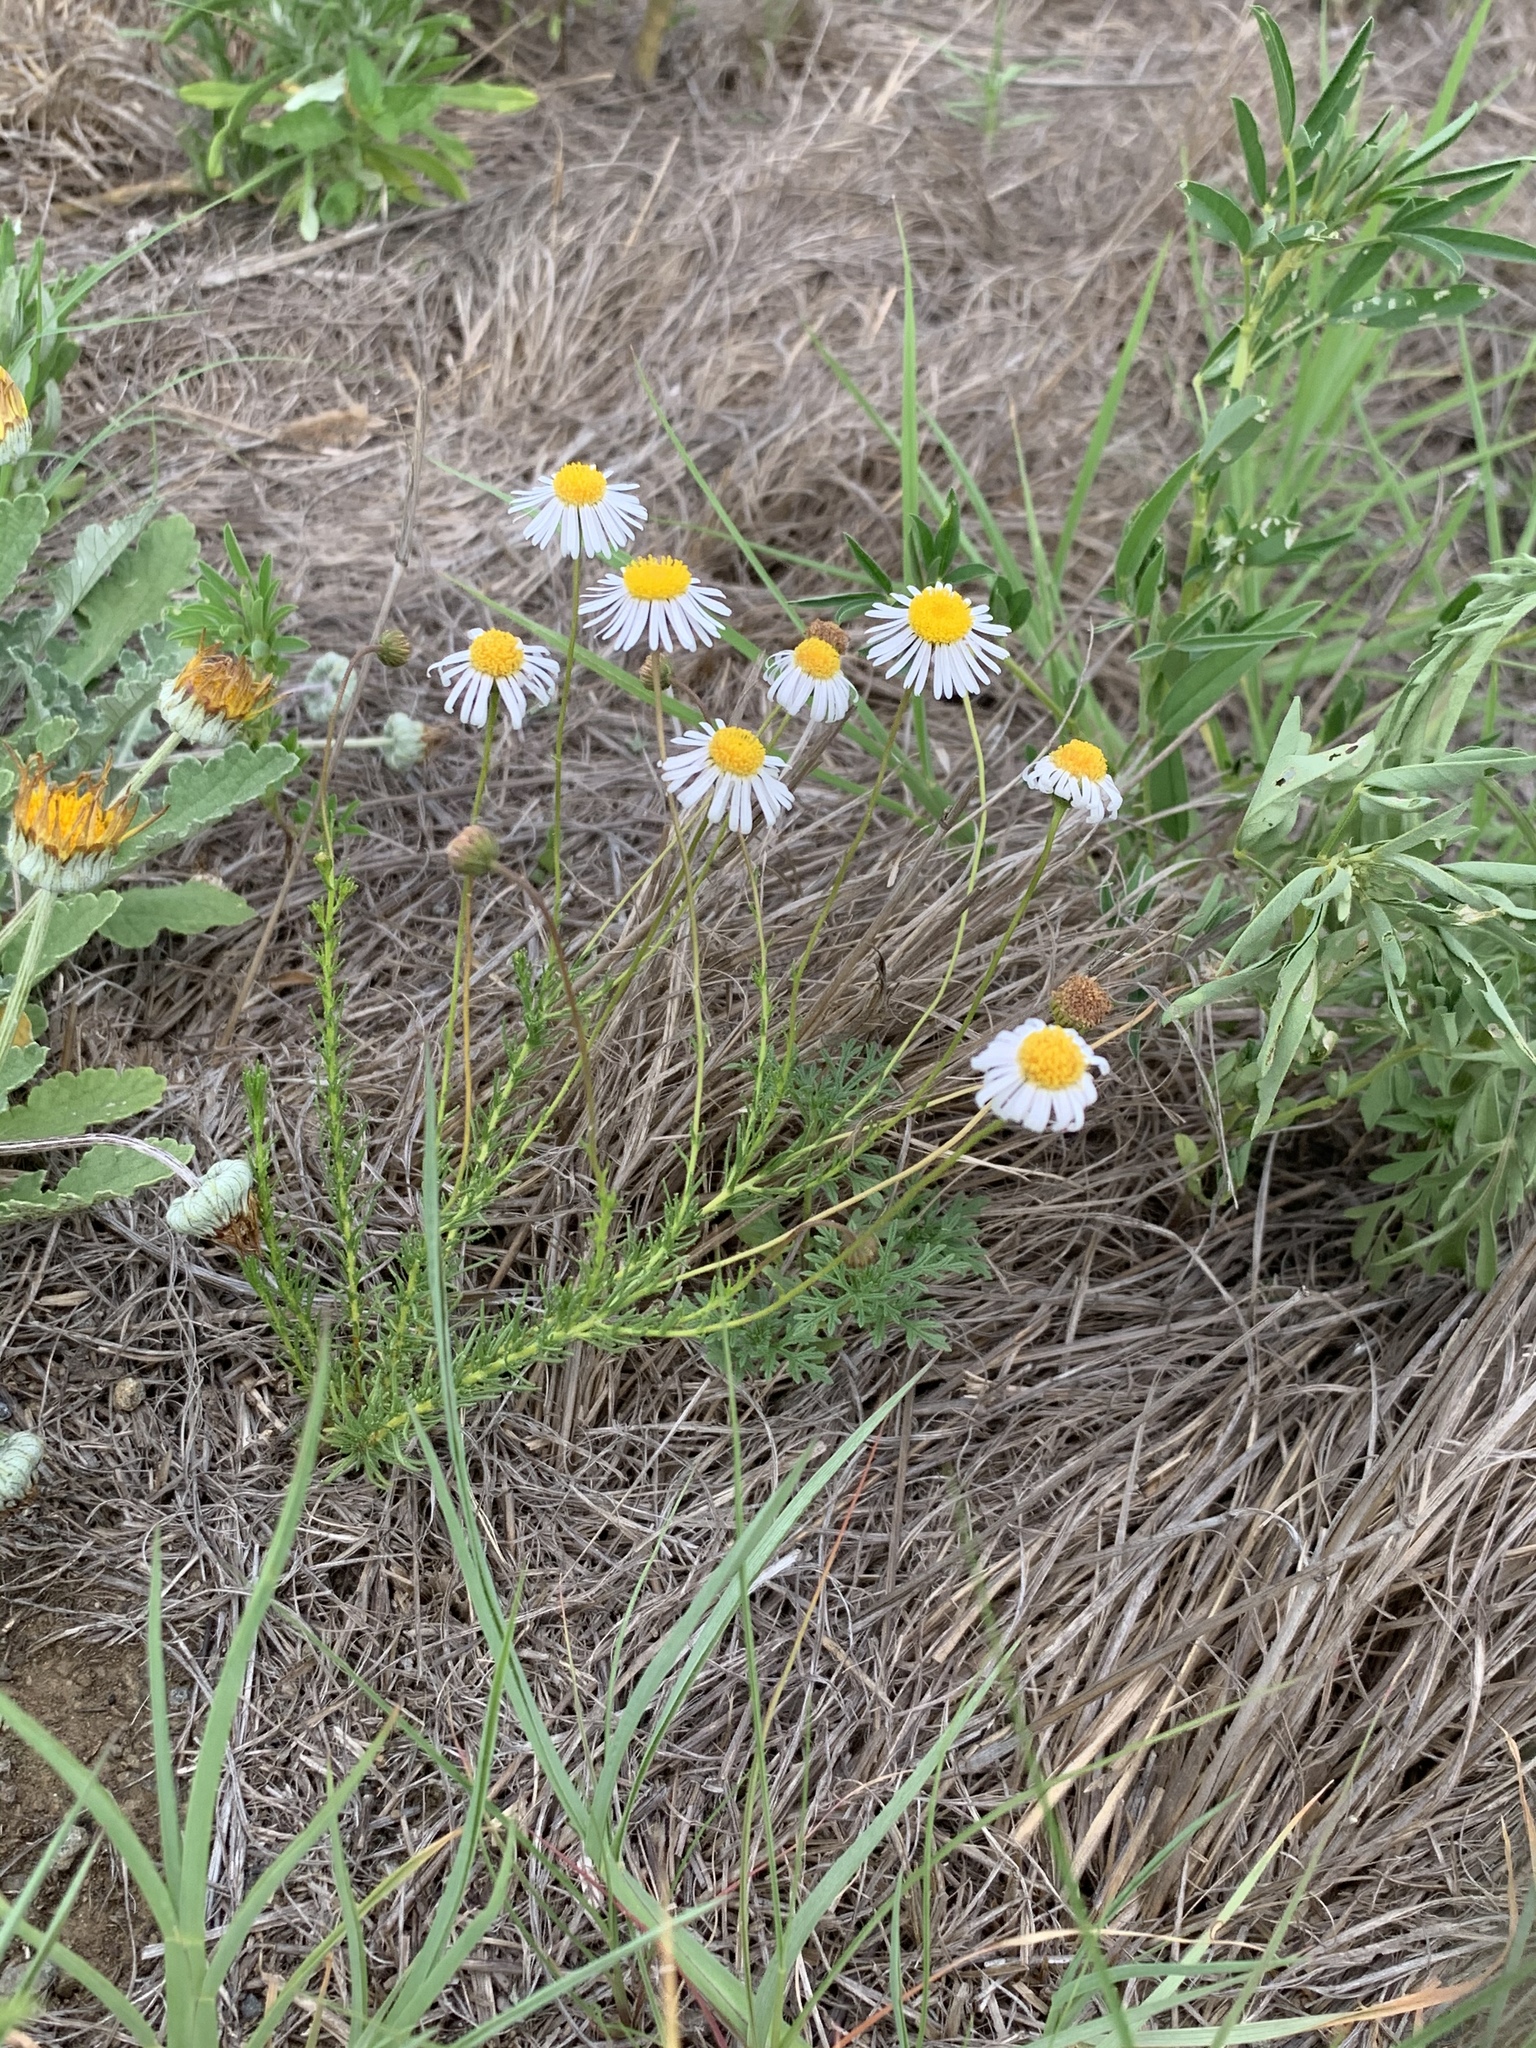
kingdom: Plantae
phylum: Tracheophyta
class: Magnoliopsida
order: Asterales
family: Asteraceae
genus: Felicia
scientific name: Felicia muricata
